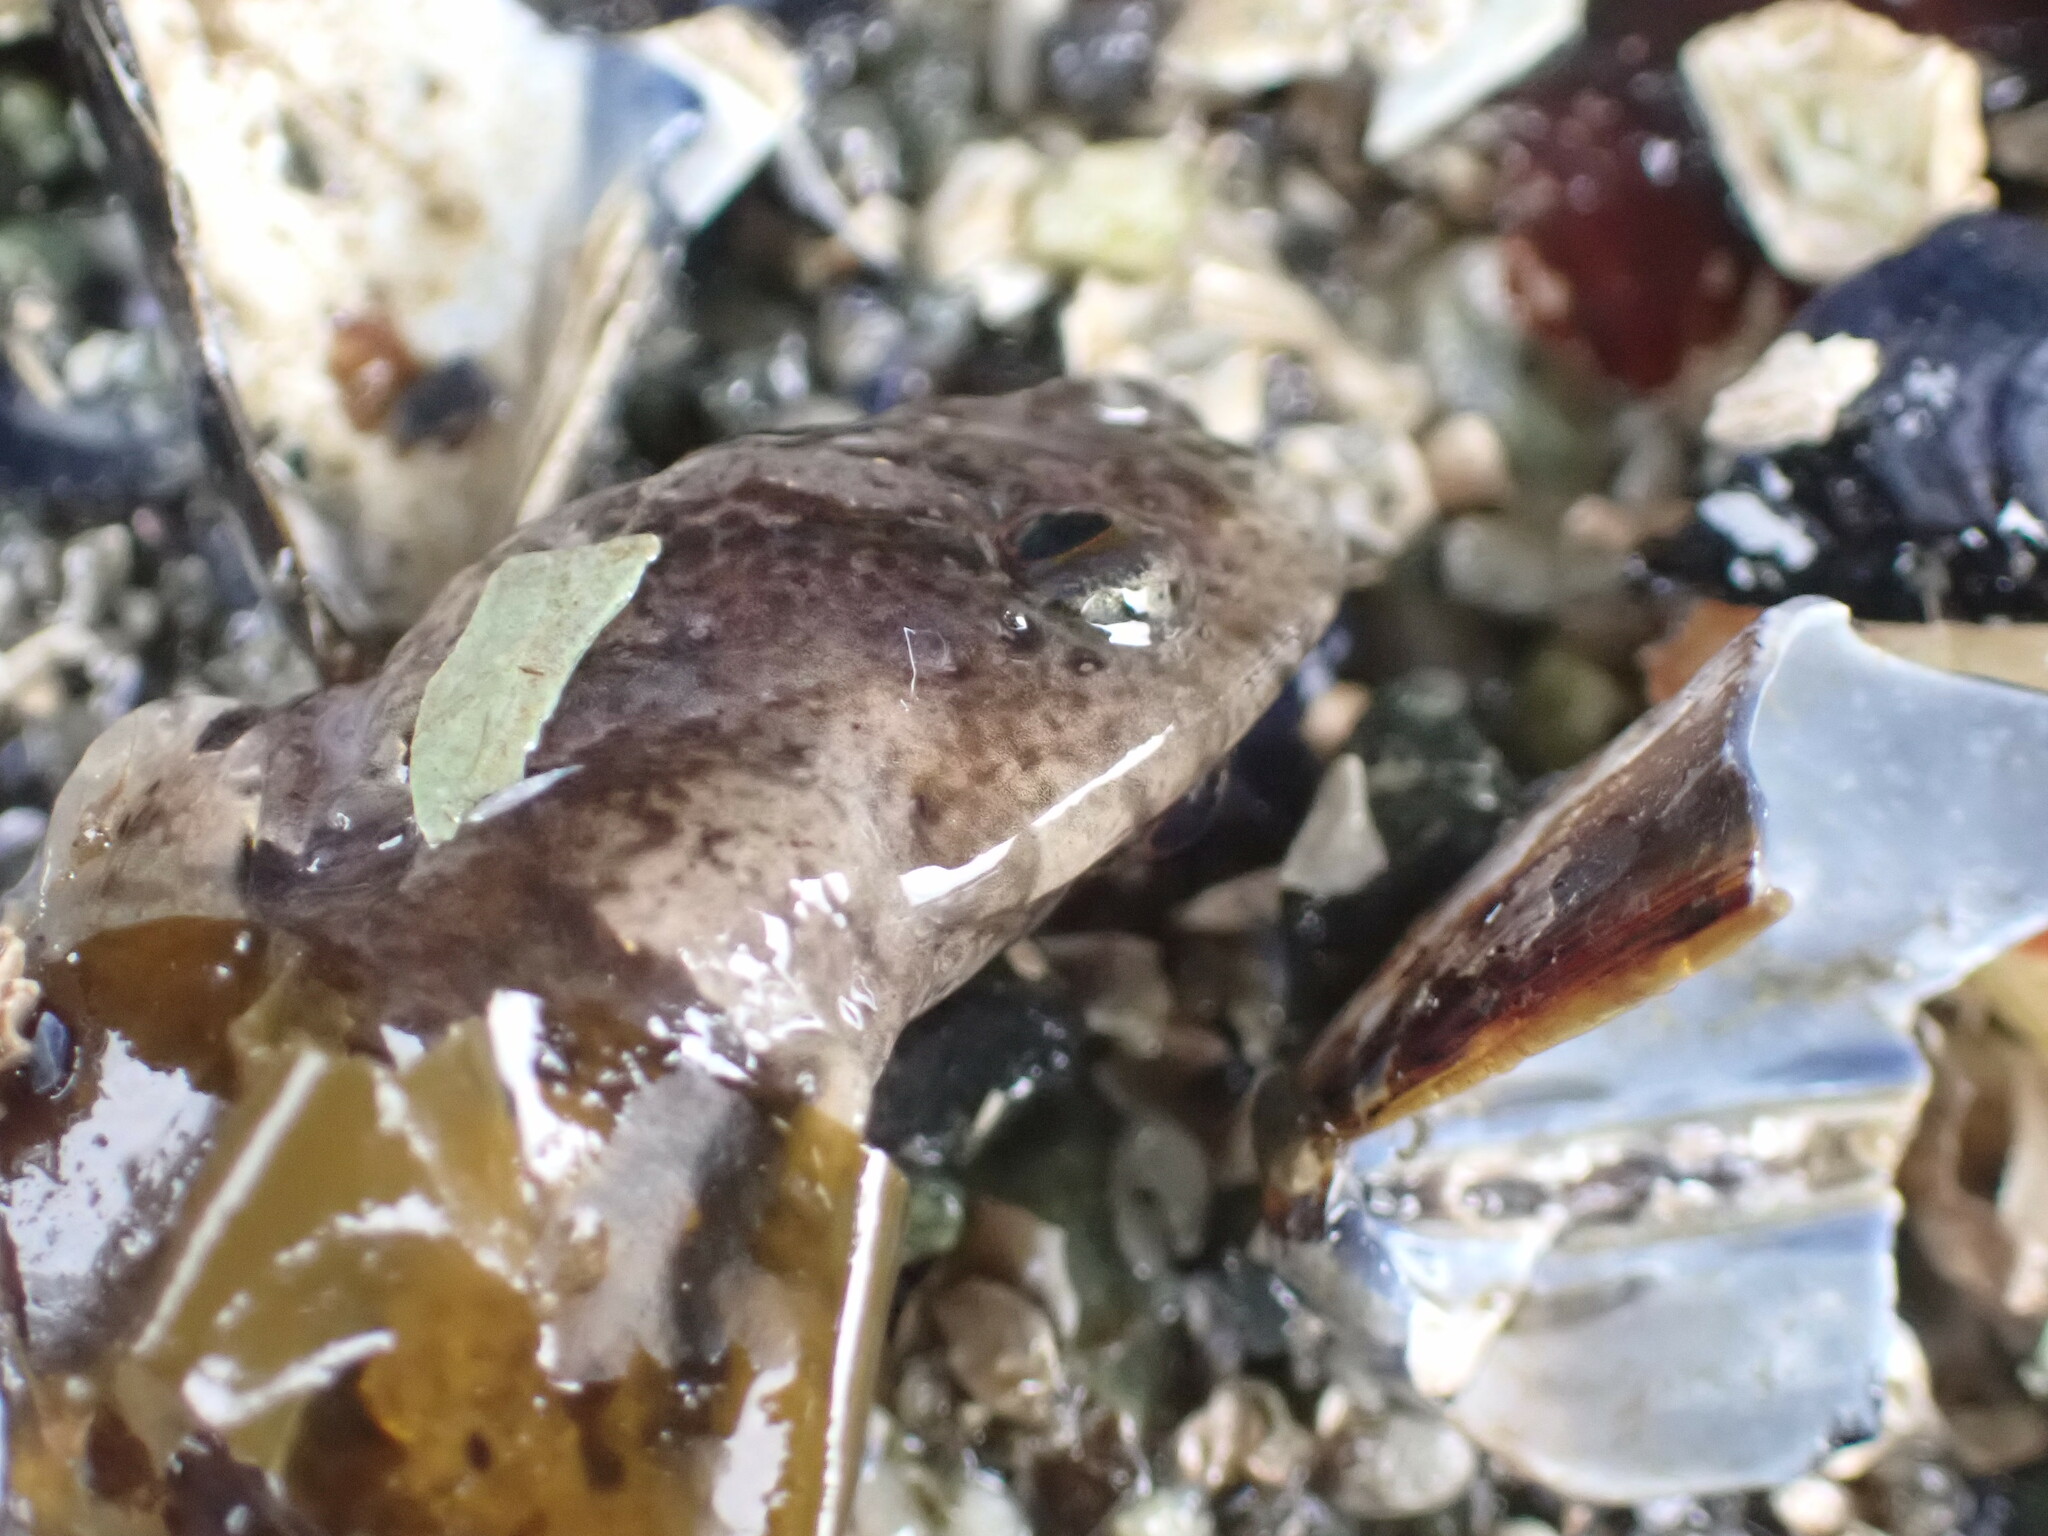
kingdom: Animalia
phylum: Chordata
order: Perciformes
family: Stichaeidae
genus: Anoplarchus
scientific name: Anoplarchus purpurescens
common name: High cockscomb
